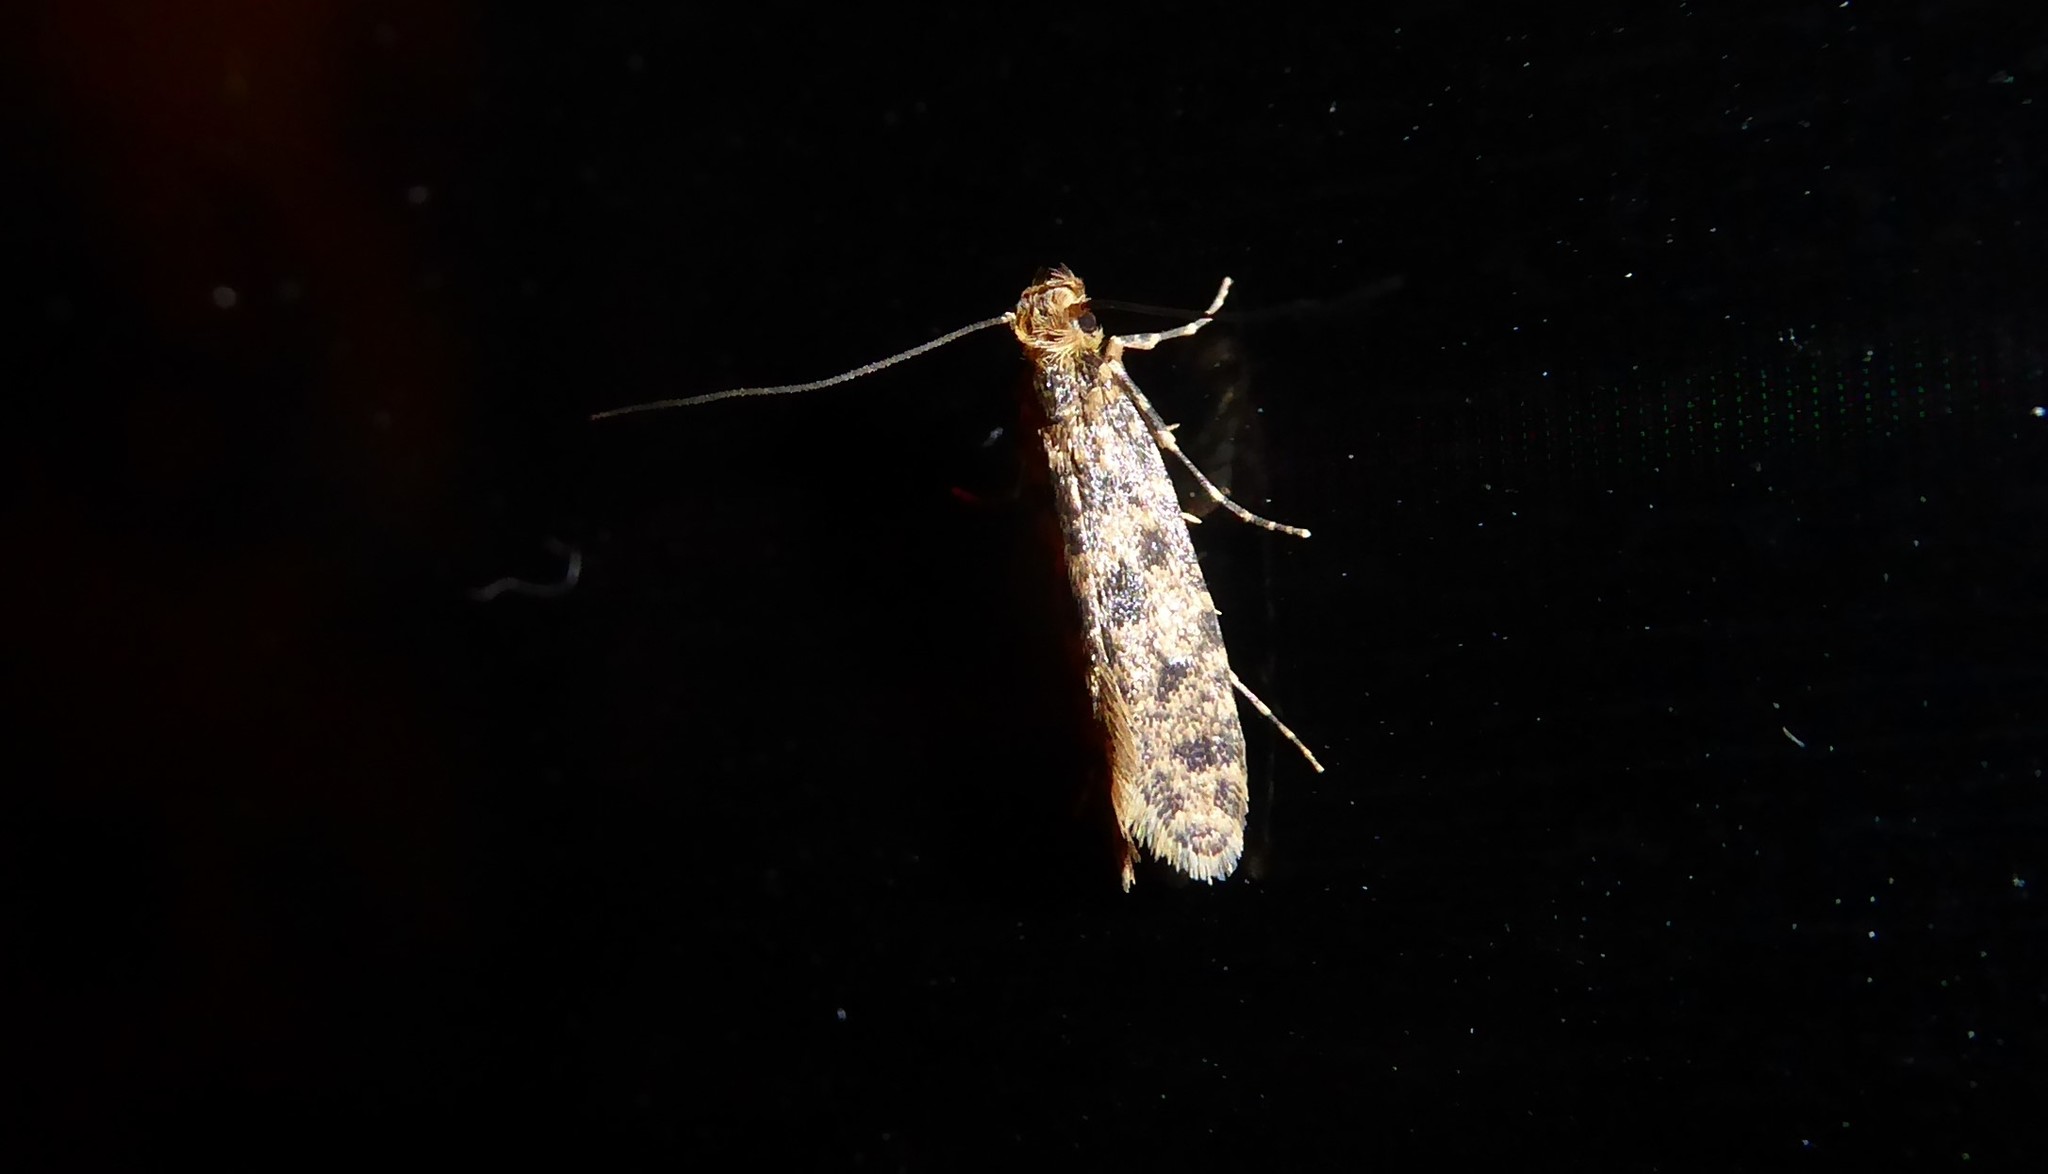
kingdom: Animalia
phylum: Arthropoda
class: Insecta
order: Lepidoptera
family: Tineidae
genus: Archyala
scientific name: Archyala terranea
